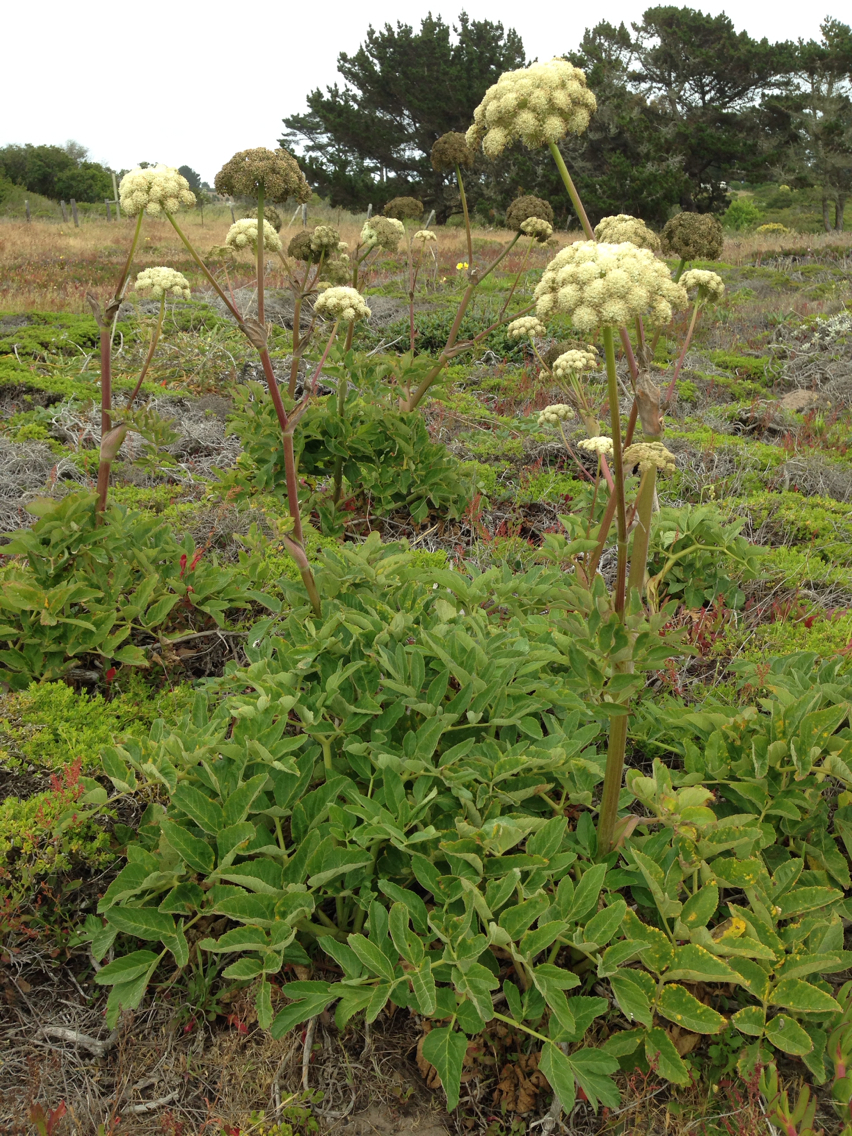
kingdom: Plantae
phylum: Tracheophyta
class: Magnoliopsida
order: Apiales
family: Apiaceae
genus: Angelica
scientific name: Angelica hendersonii
